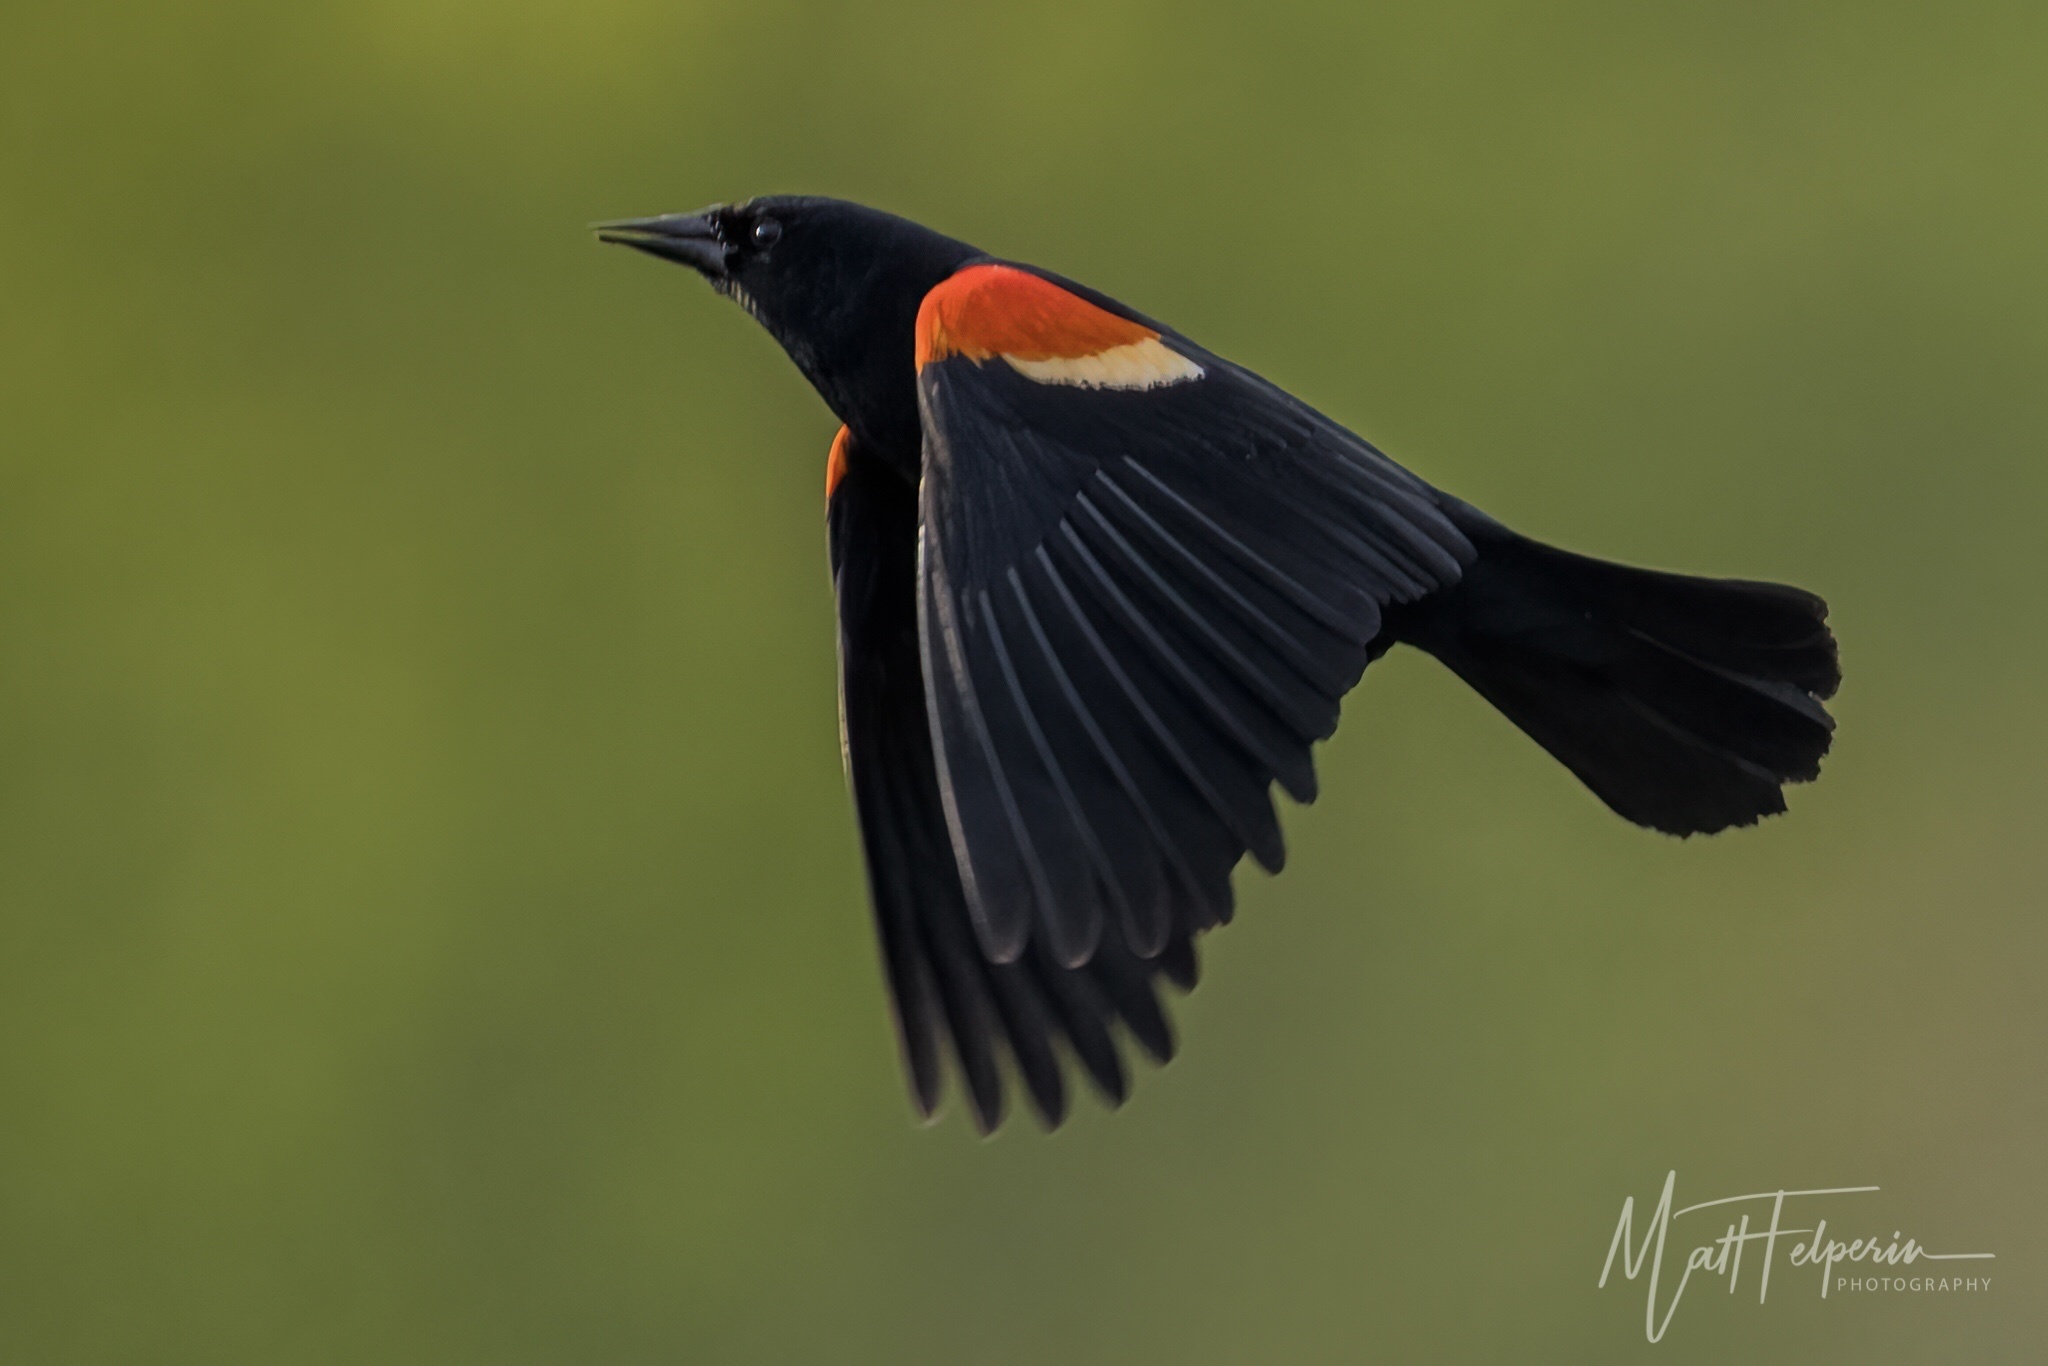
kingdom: Animalia
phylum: Chordata
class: Aves
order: Passeriformes
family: Icteridae
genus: Agelaius
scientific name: Agelaius phoeniceus
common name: Red-winged blackbird
